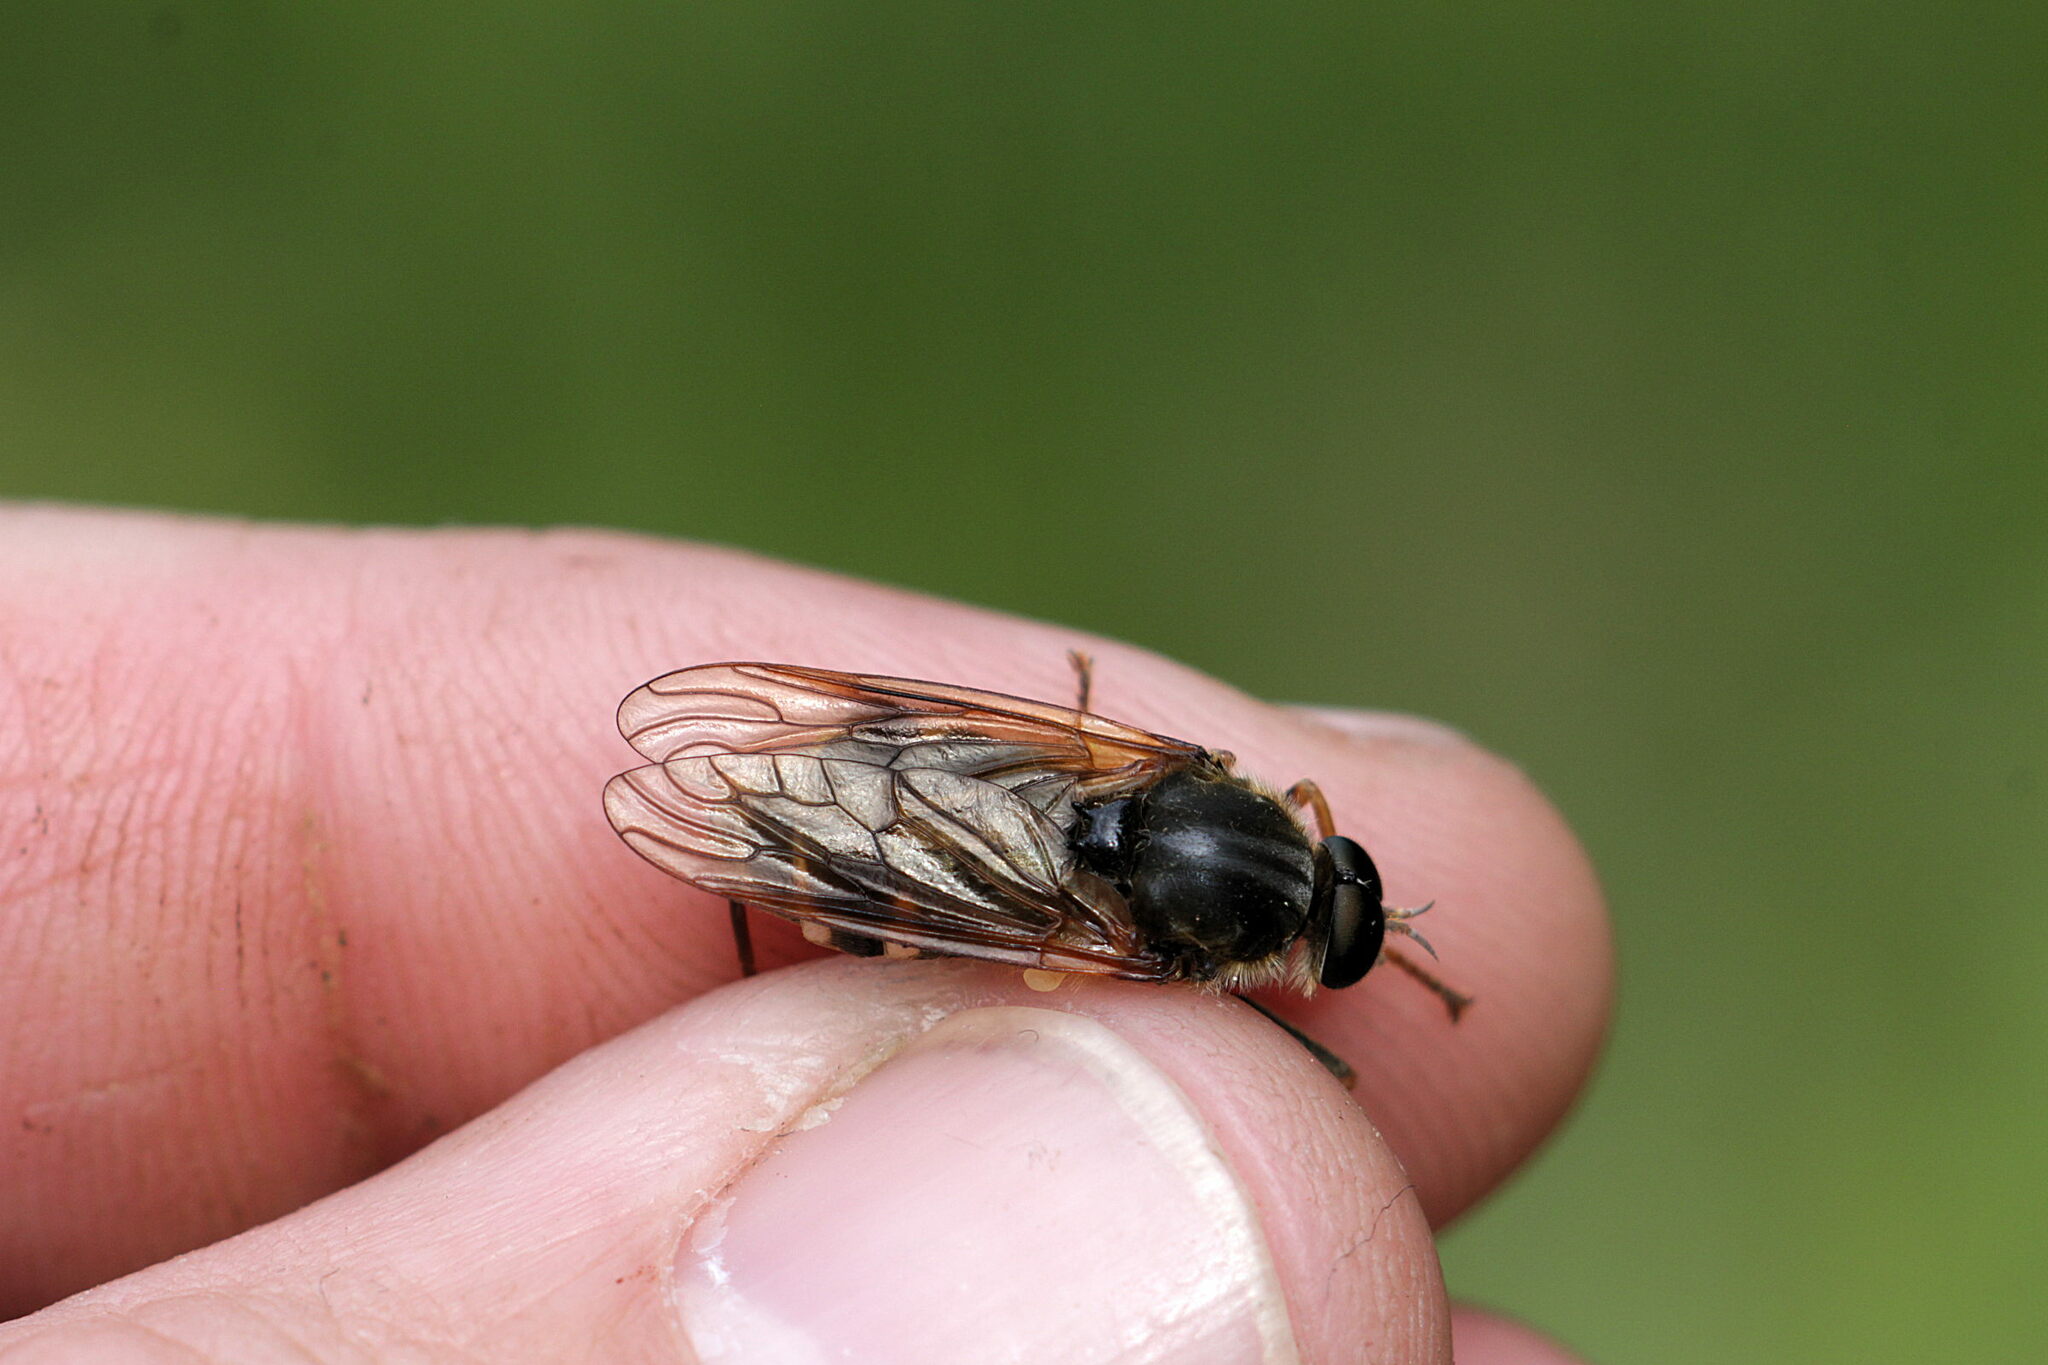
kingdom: Animalia
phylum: Arthropoda
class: Insecta
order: Diptera
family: Xylophagidae
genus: Coenomyia
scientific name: Coenomyia ferruginea
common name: Stink fly
